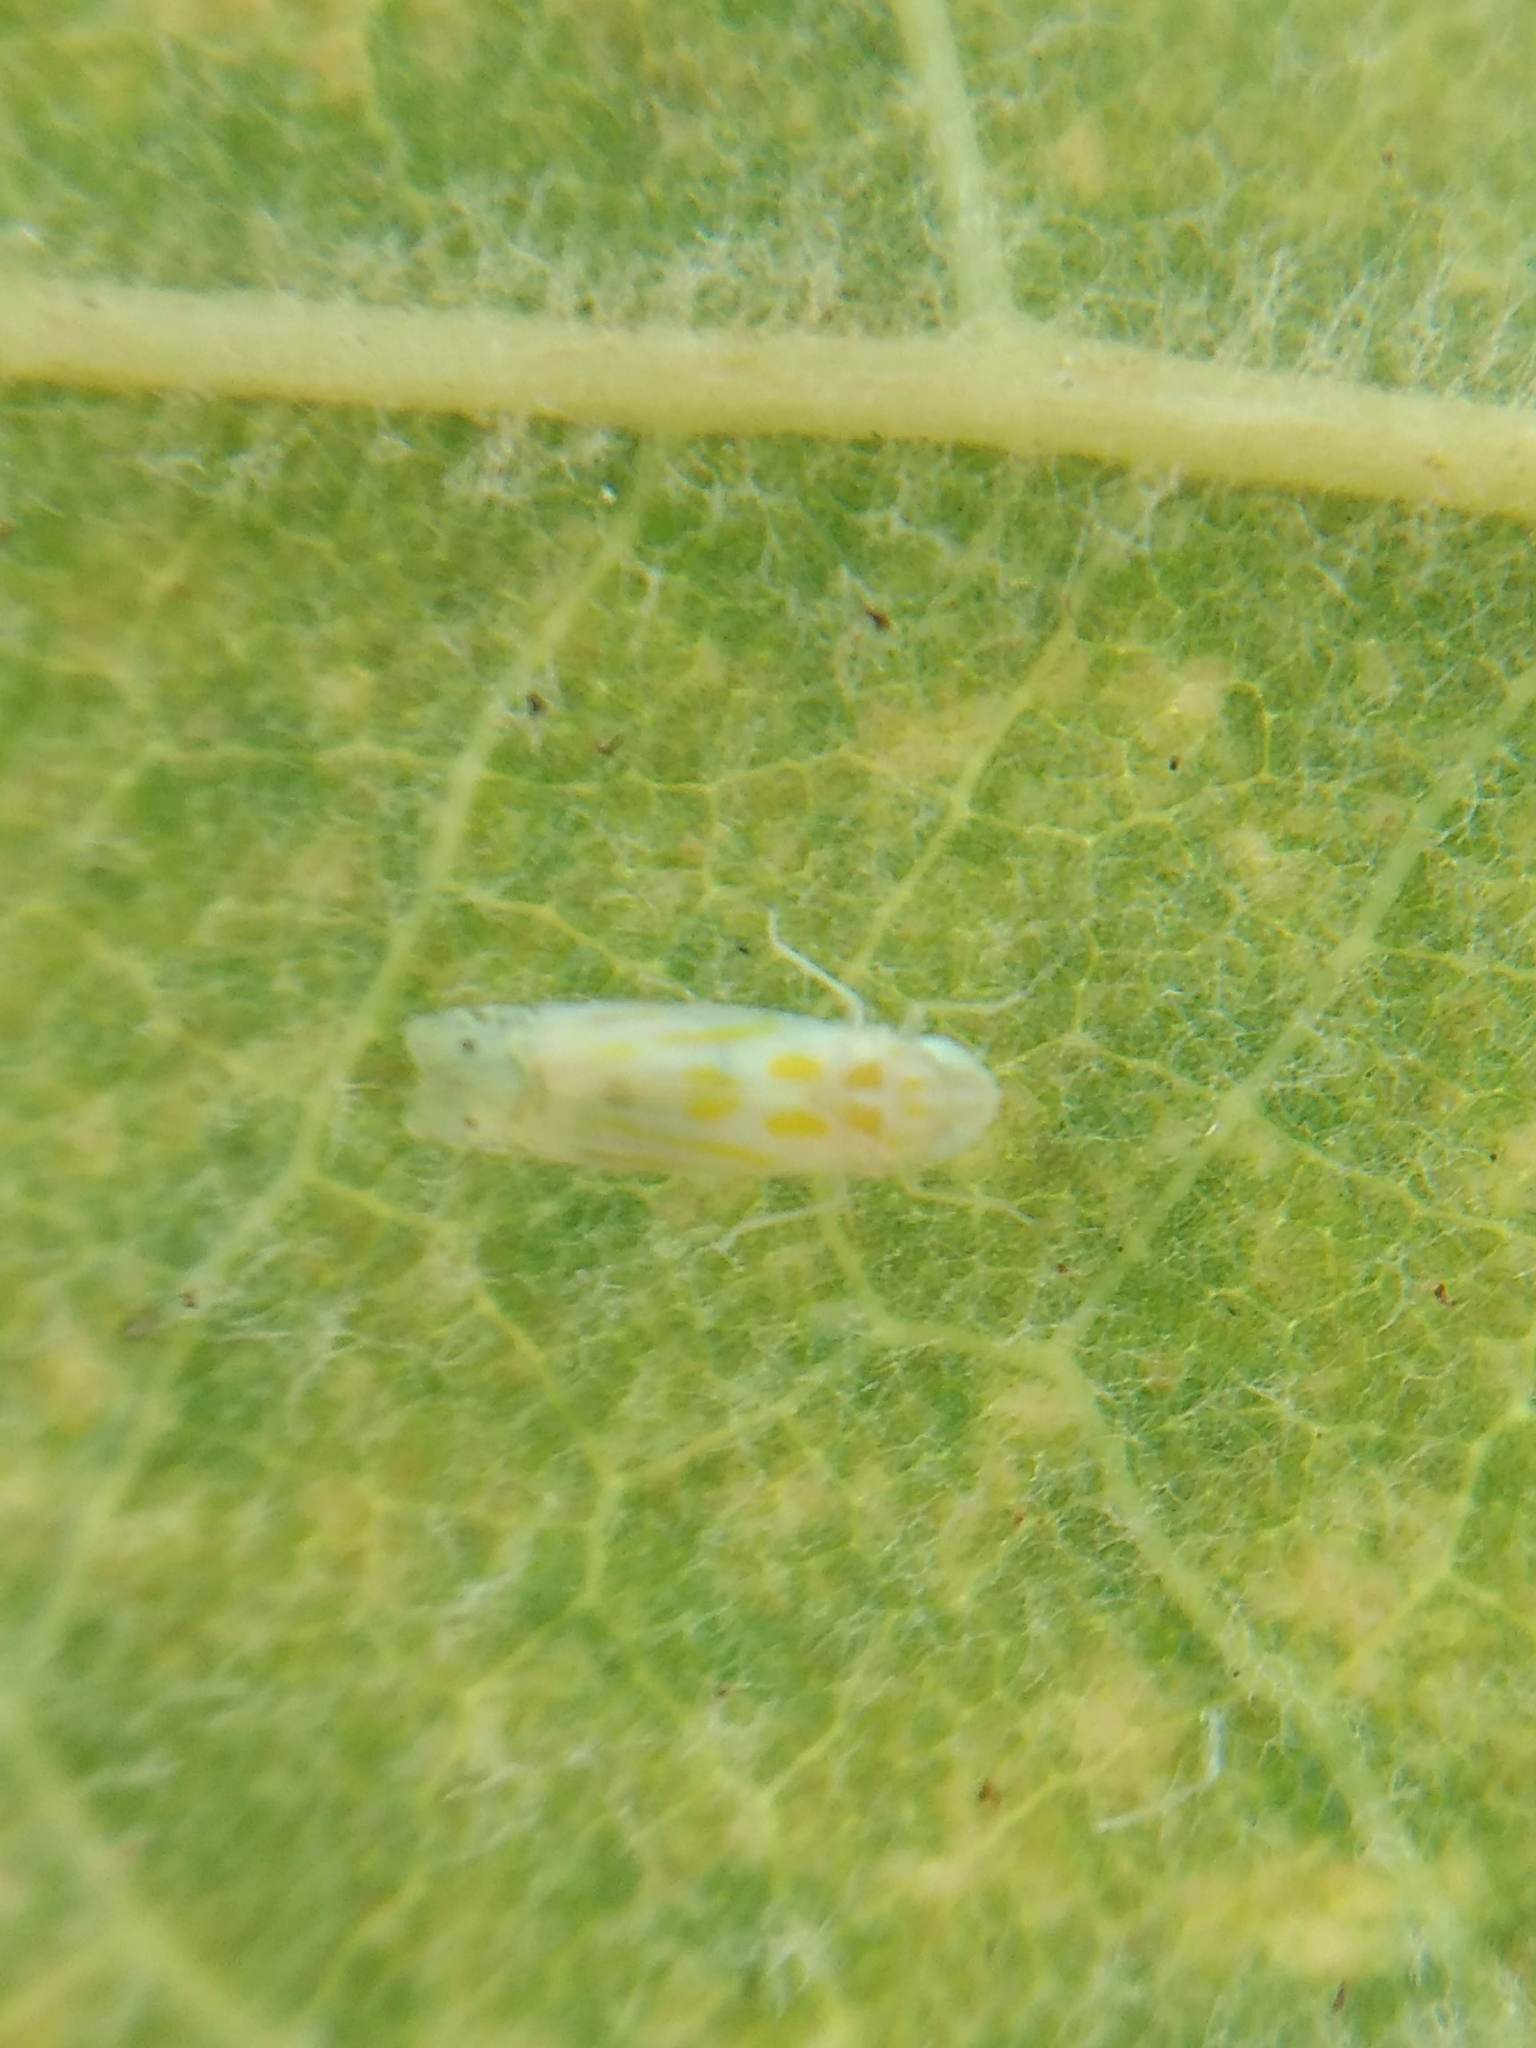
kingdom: Animalia
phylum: Arthropoda
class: Insecta
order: Hemiptera
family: Cicadellidae
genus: Alconeura
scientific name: Alconeura quadrimaculata
